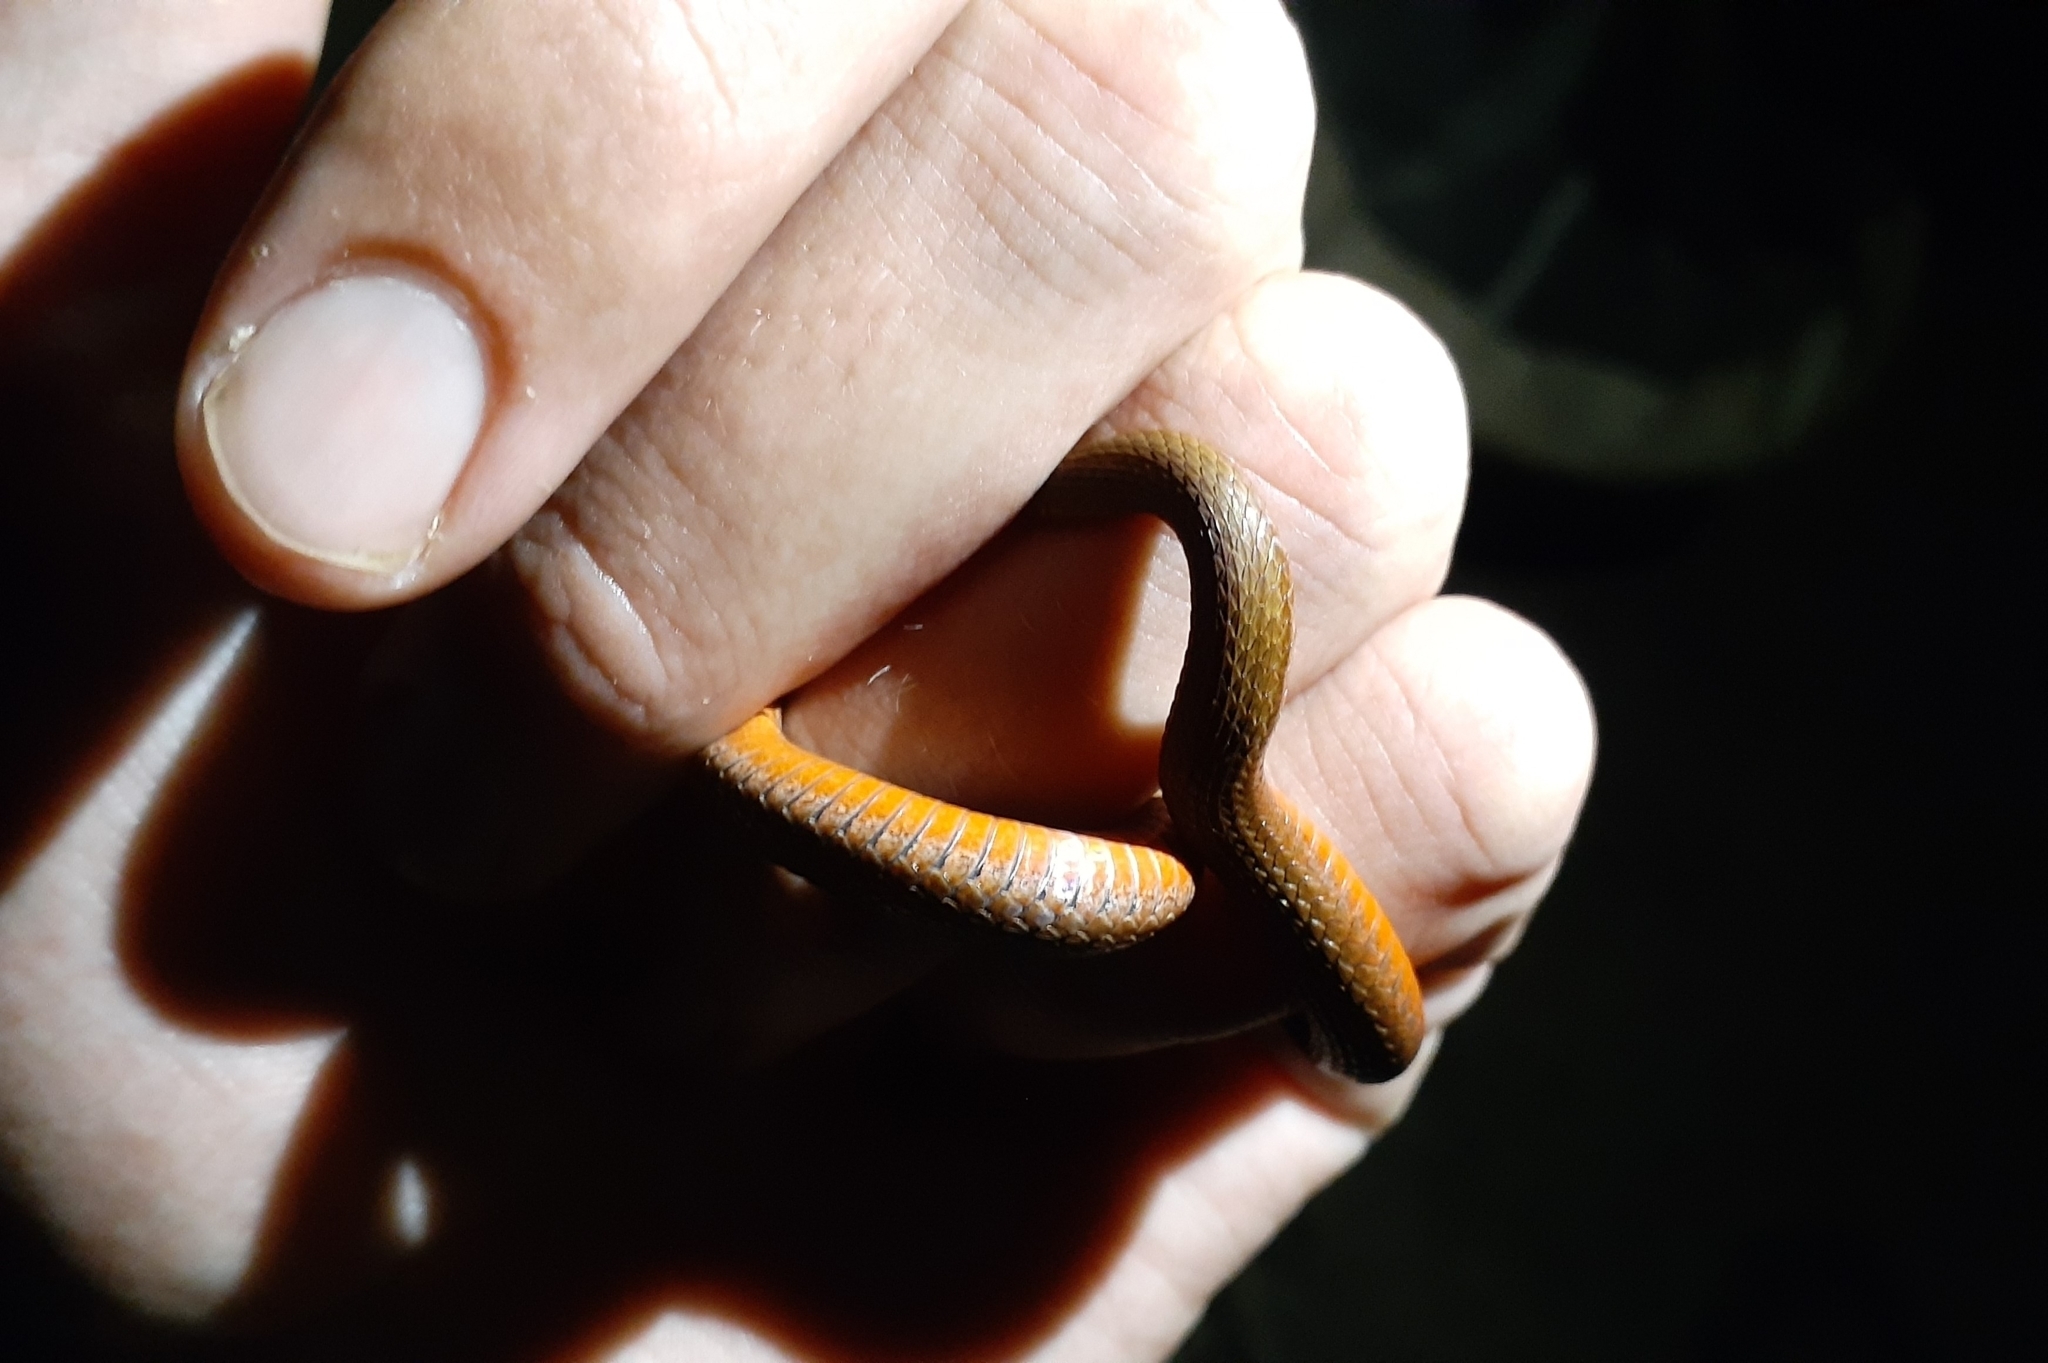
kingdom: Animalia
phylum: Chordata
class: Squamata
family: Colubridae
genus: Storeria
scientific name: Storeria occipitomaculata
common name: Redbelly snake
